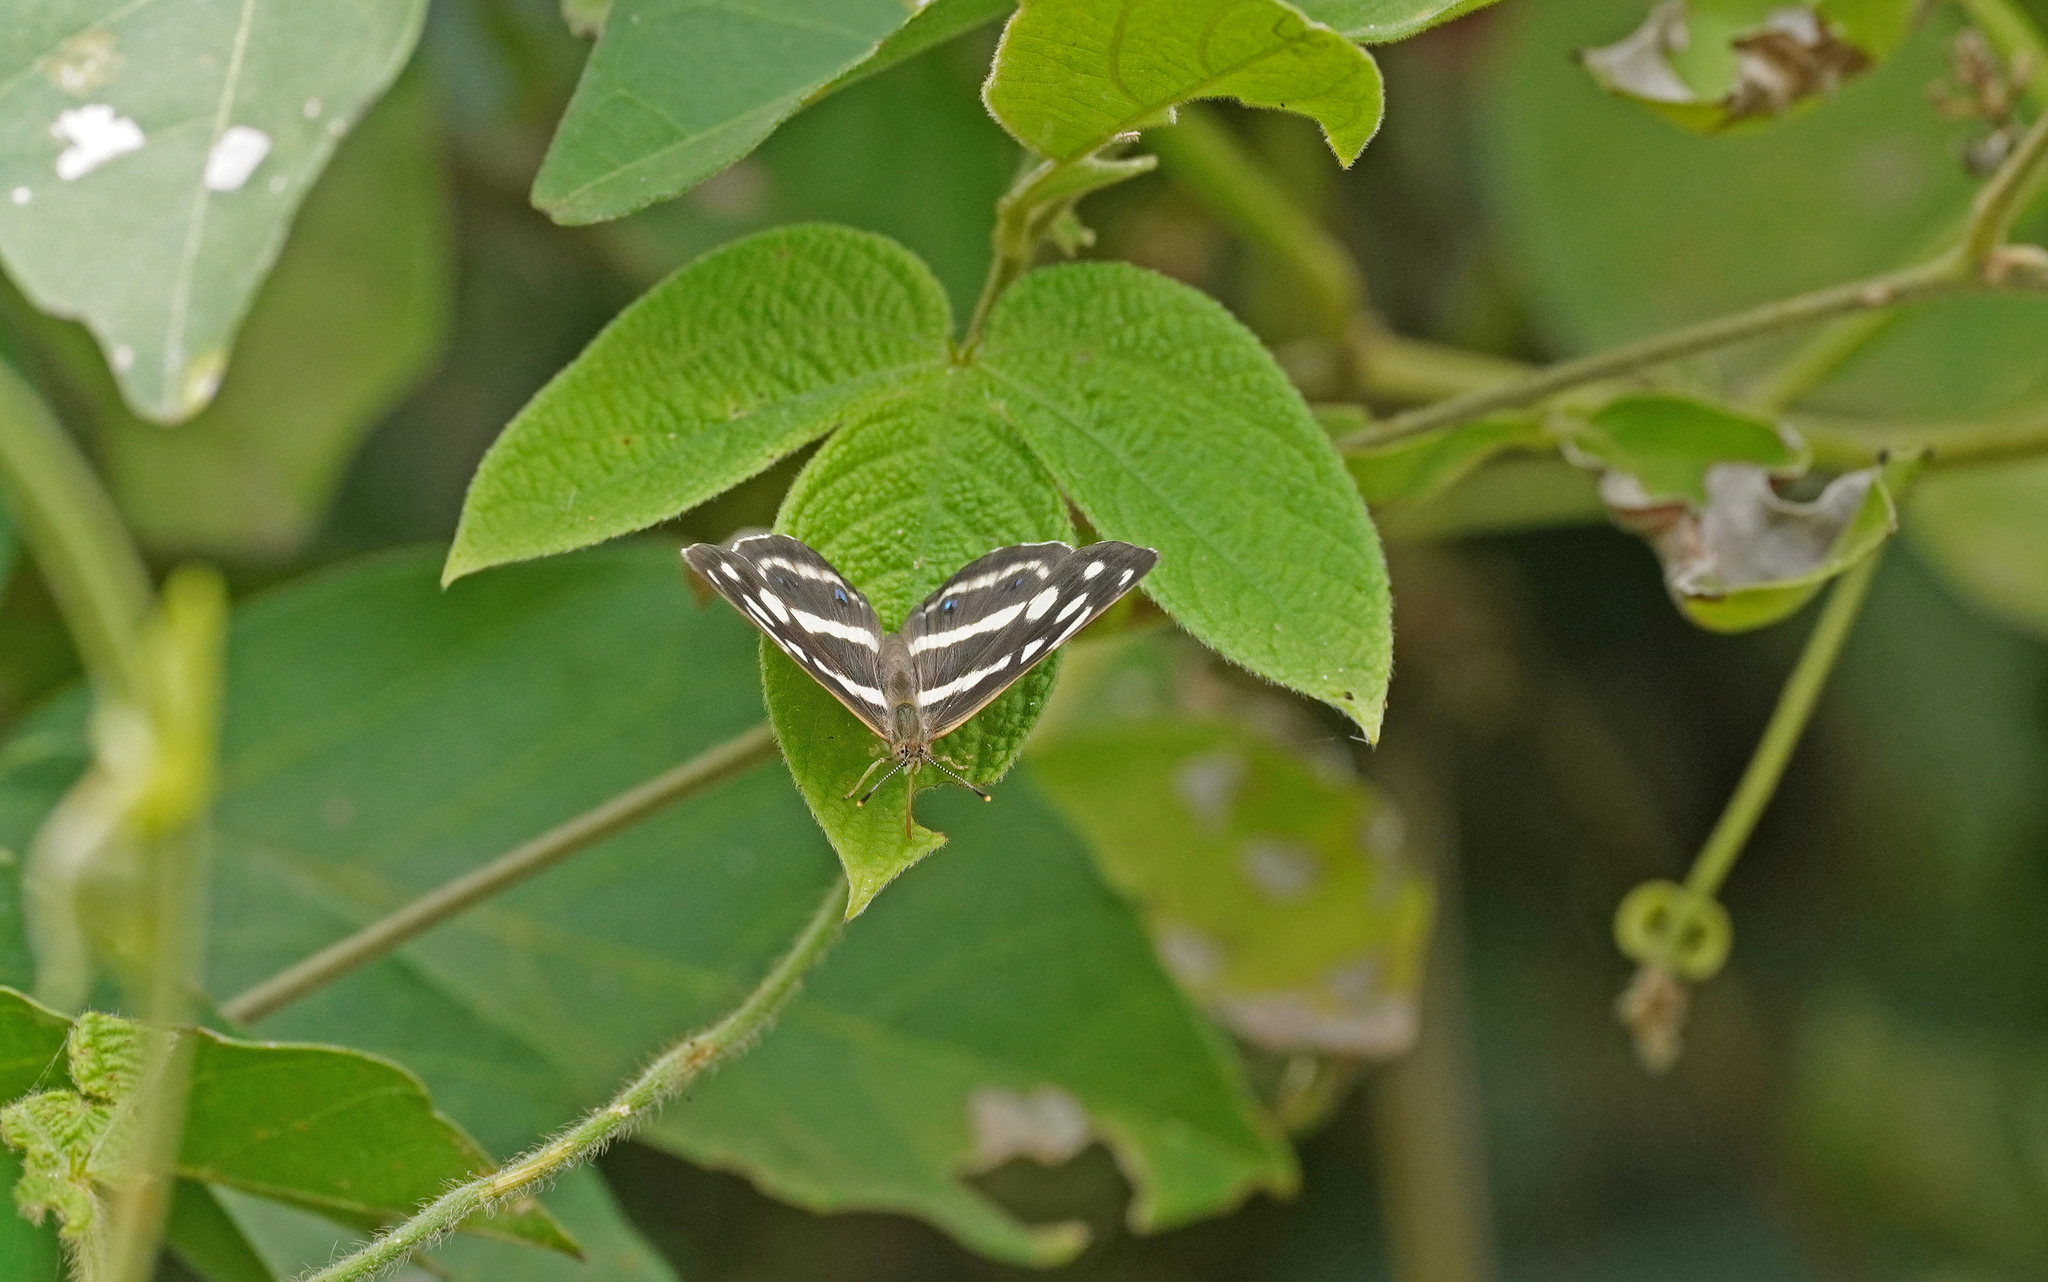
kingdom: Animalia
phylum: Arthropoda
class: Insecta
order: Lepidoptera
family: Nymphalidae
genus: Dynamine
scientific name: Dynamine paulina
